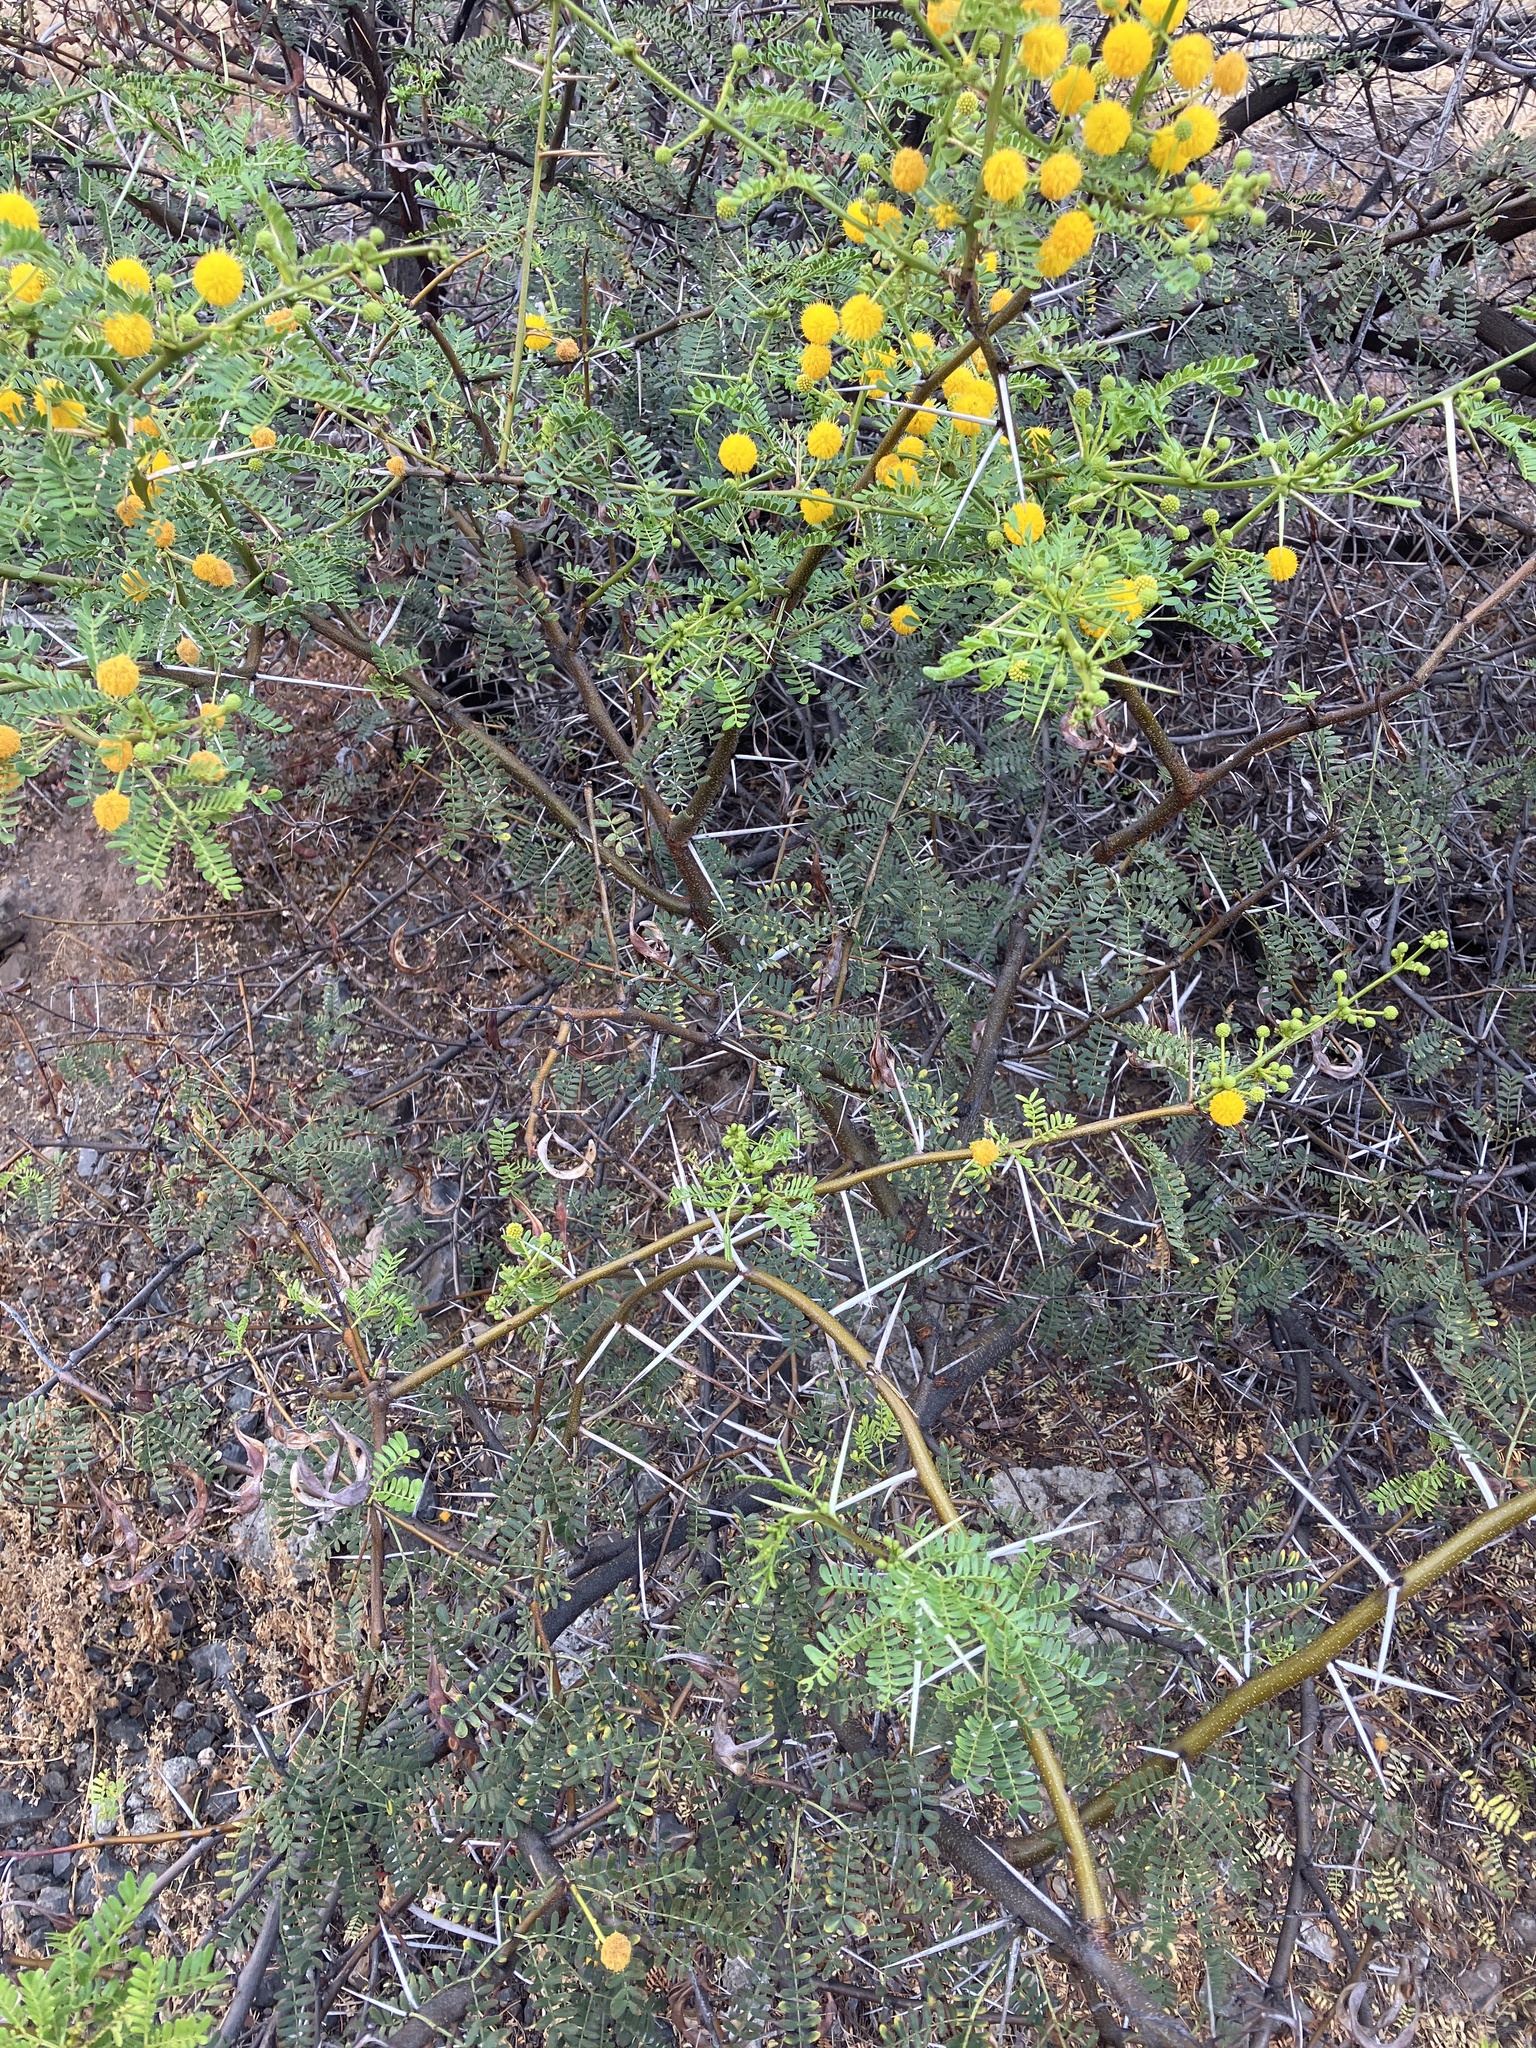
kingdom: Plantae
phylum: Tracheophyta
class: Magnoliopsida
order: Fabales
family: Fabaceae
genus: Vachellia
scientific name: Vachellia karroo
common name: Sweet thorn
